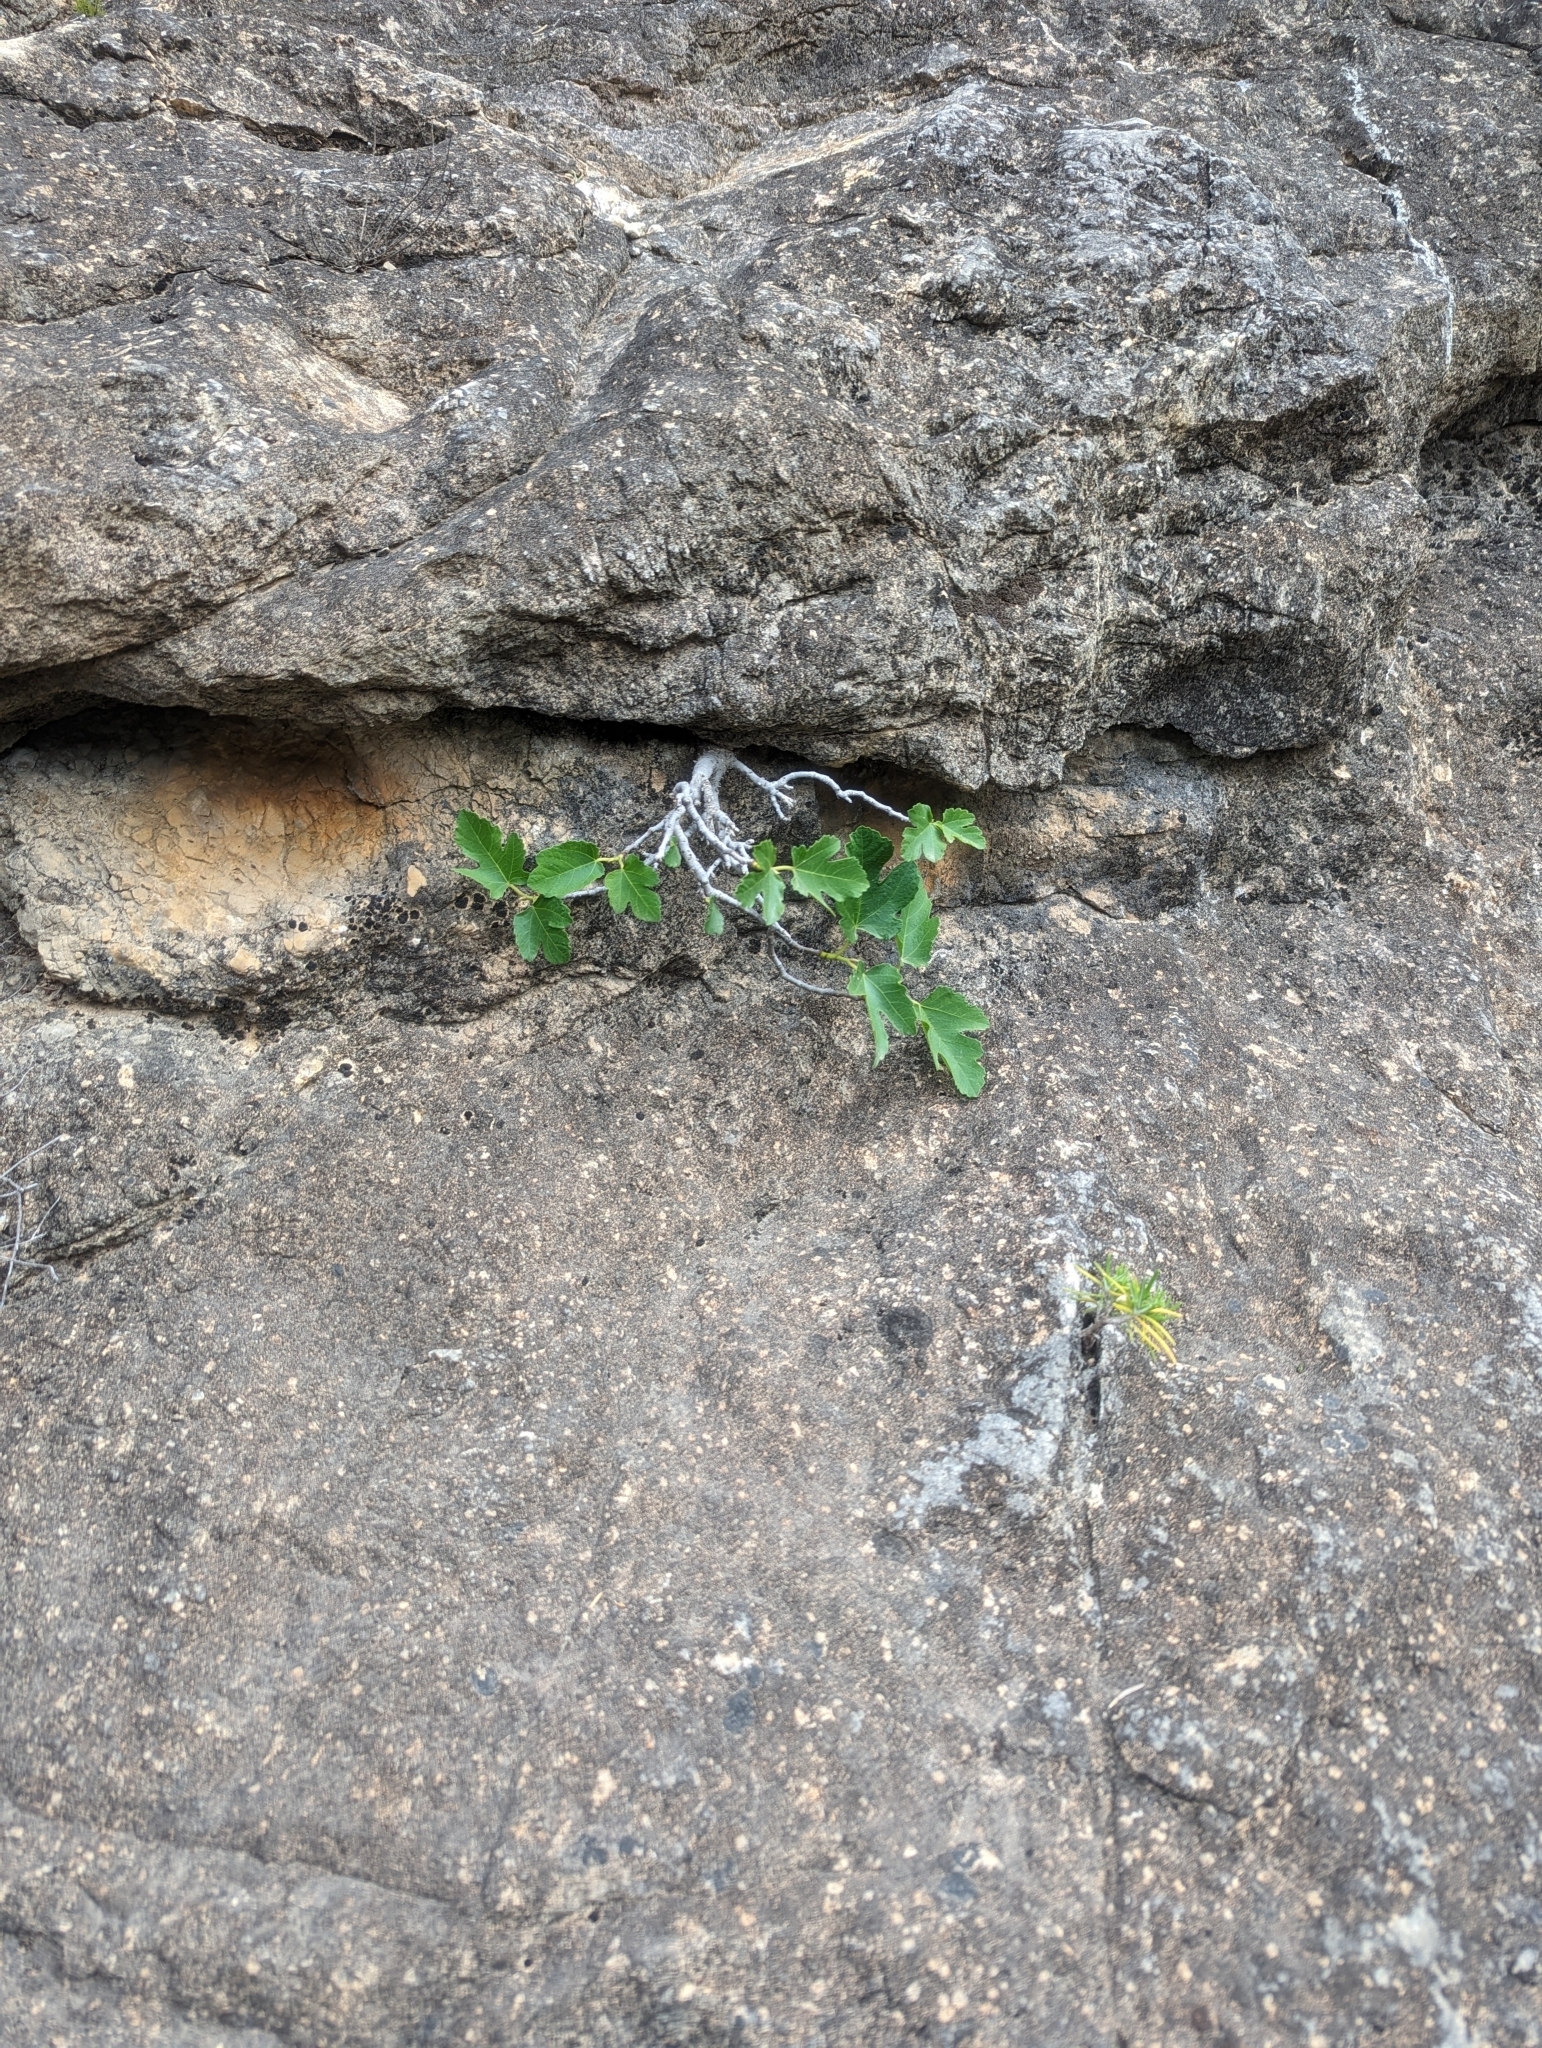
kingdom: Plantae
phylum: Tracheophyta
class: Magnoliopsida
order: Rosales
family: Moraceae
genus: Ficus
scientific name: Ficus carica
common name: Fig
